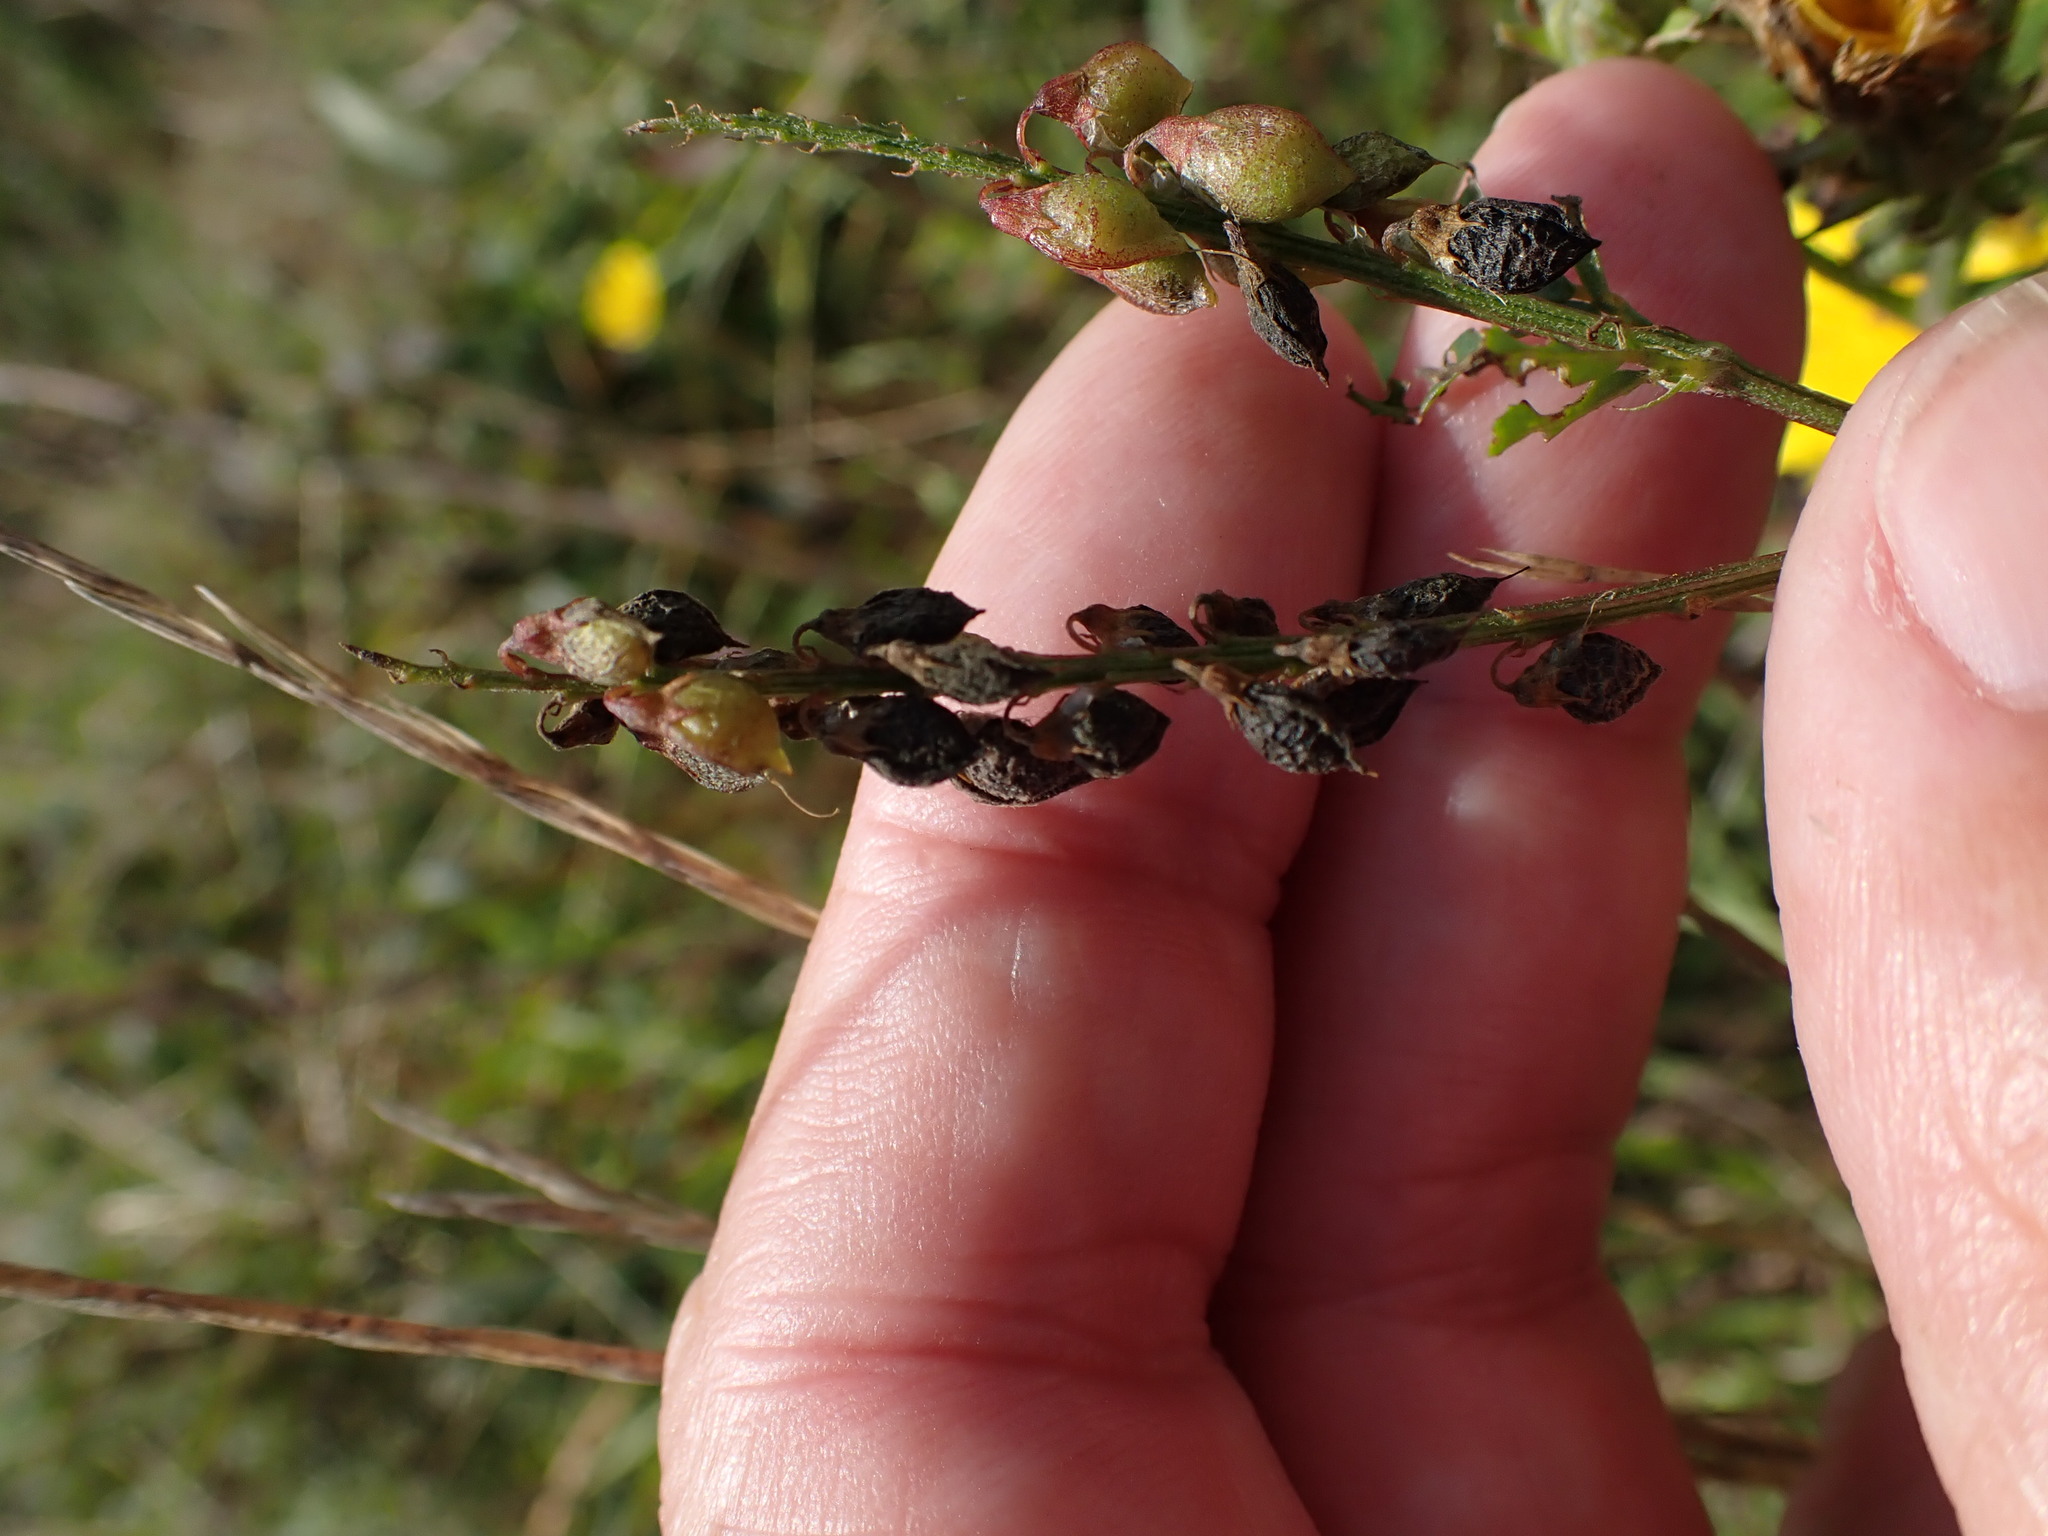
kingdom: Plantae
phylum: Tracheophyta
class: Magnoliopsida
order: Fabales
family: Fabaceae
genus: Melilotus
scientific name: Melilotus altissimus
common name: Tall melilot
